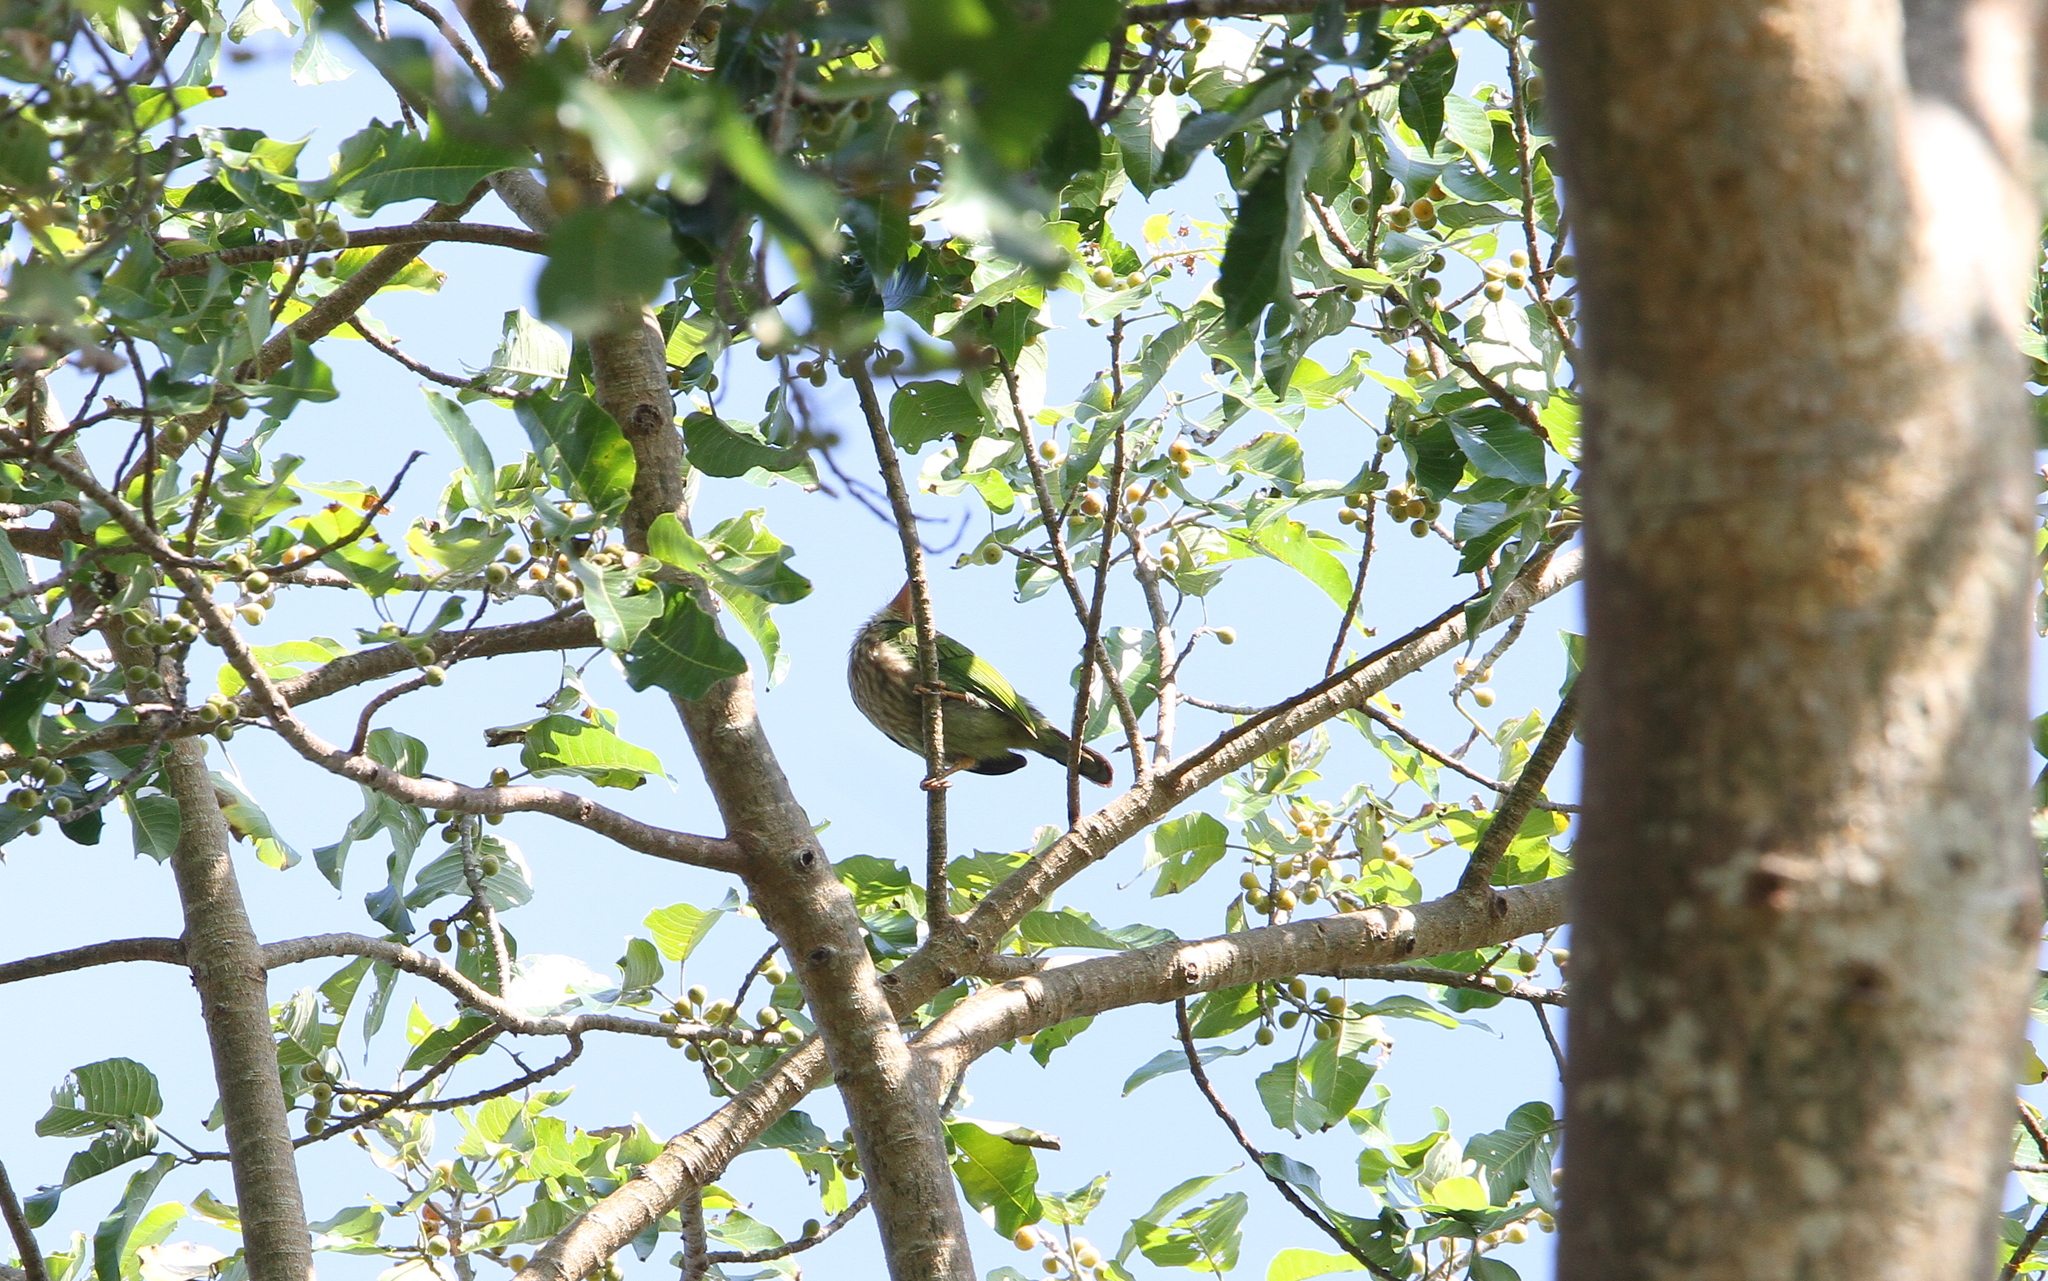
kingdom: Animalia
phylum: Chordata
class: Aves
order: Piciformes
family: Megalaimidae
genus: Psilopogon
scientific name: Psilopogon lineatus
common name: Lineated barbet
